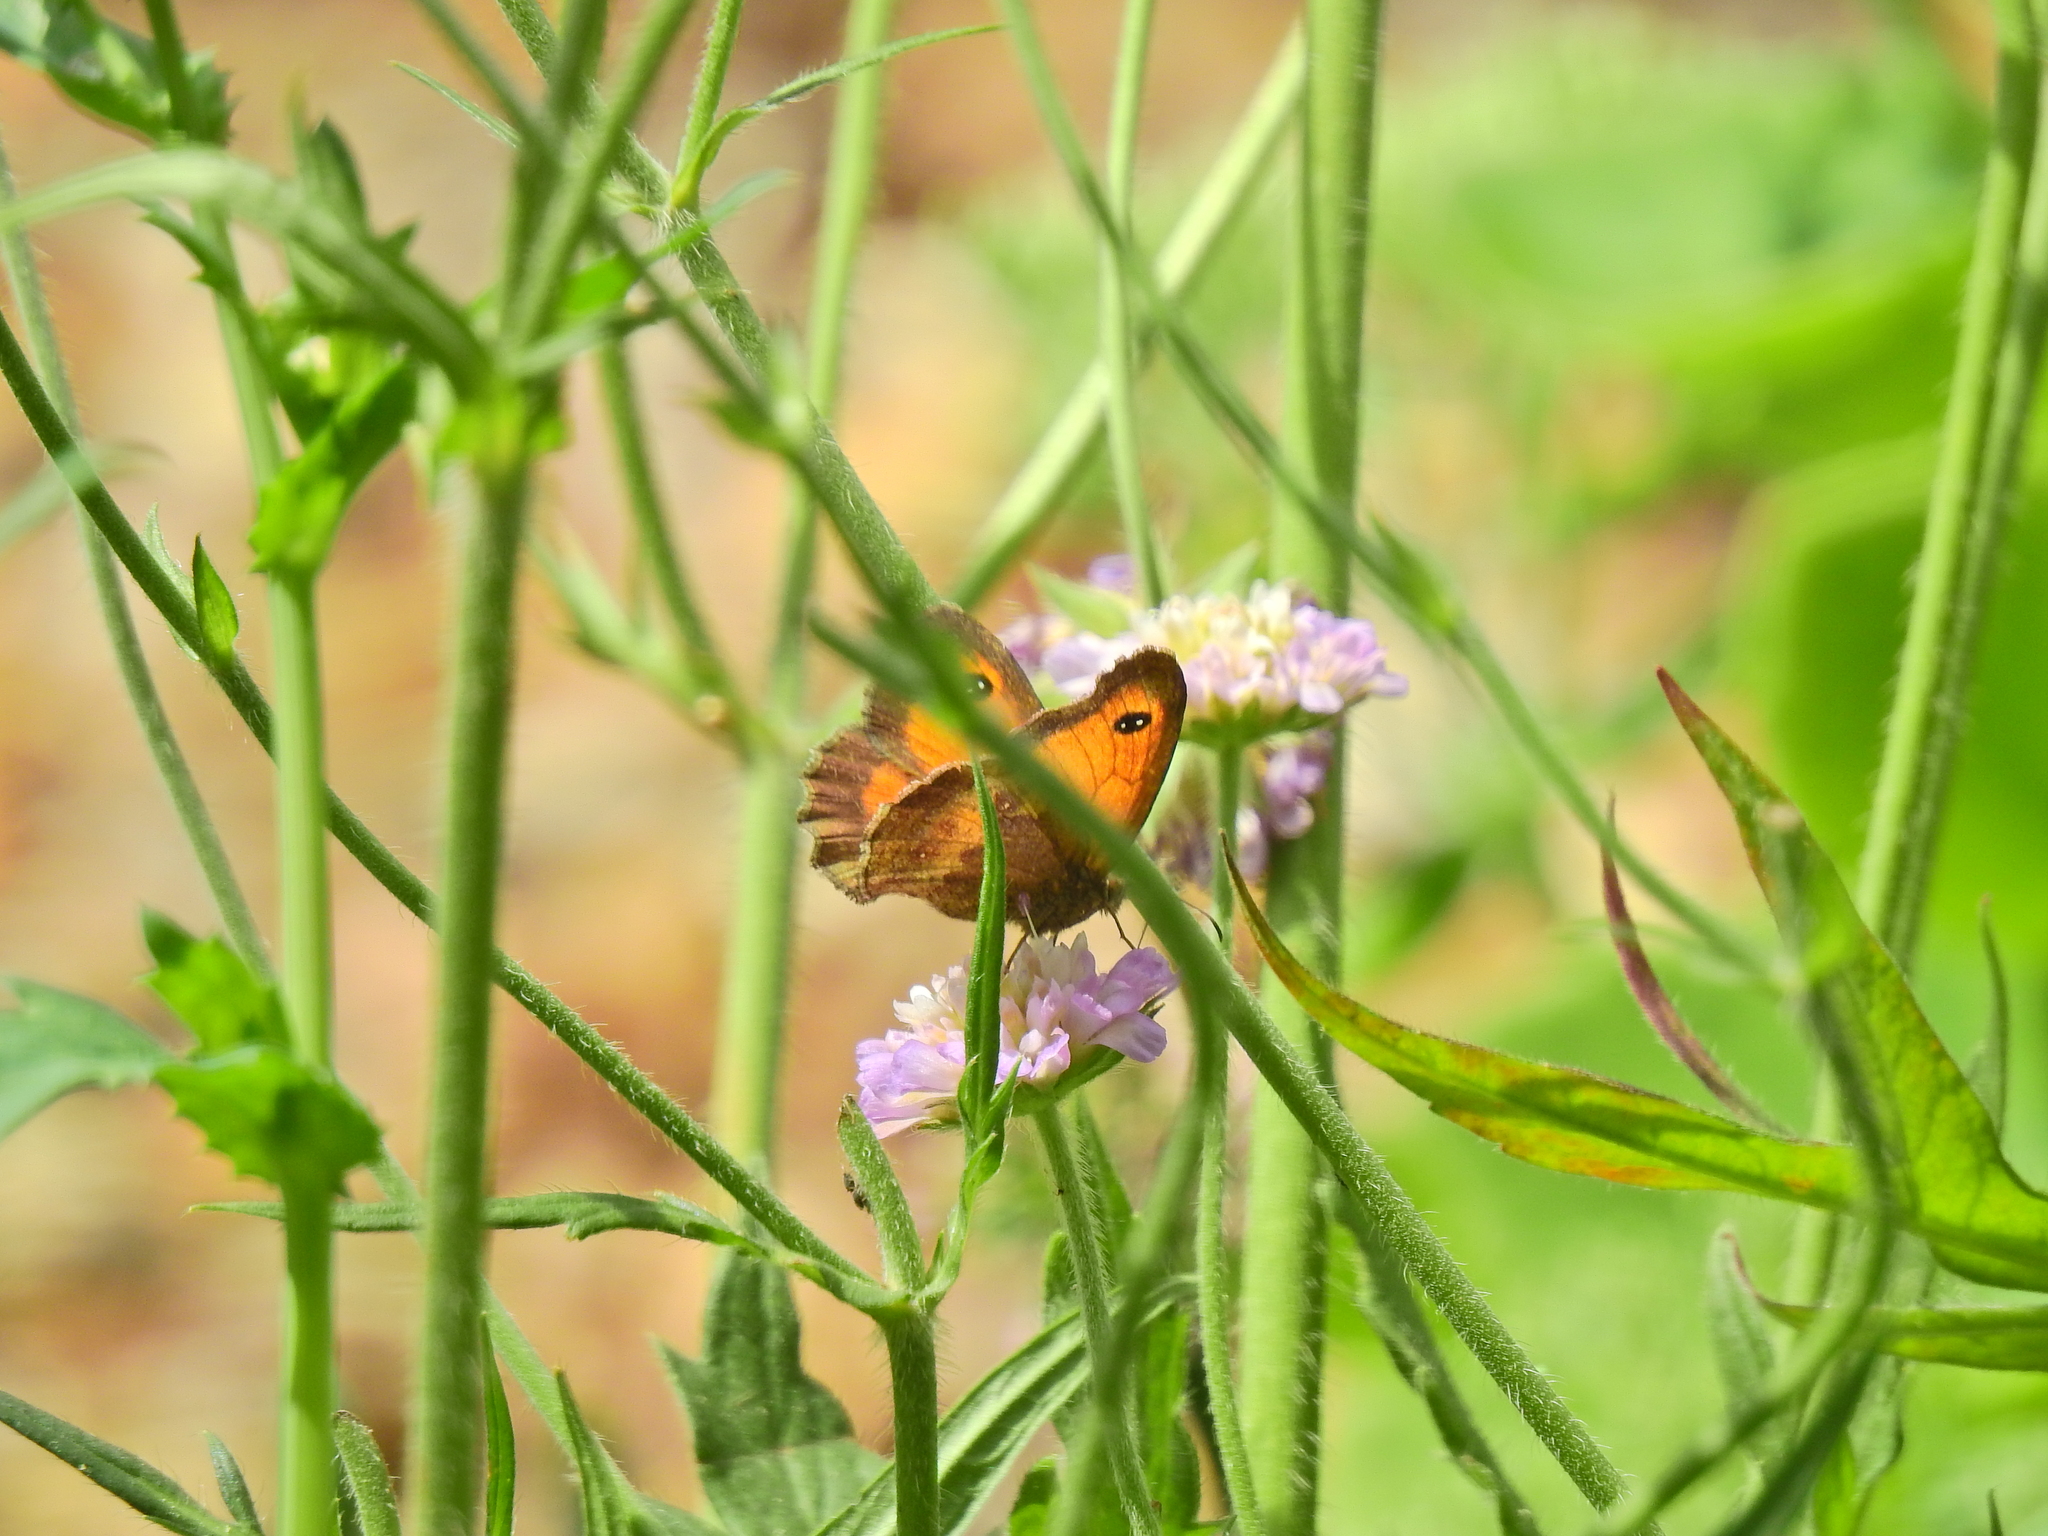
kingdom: Animalia
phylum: Arthropoda
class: Insecta
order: Lepidoptera
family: Nymphalidae
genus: Pyronia
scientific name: Pyronia tithonus
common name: Gatekeeper
